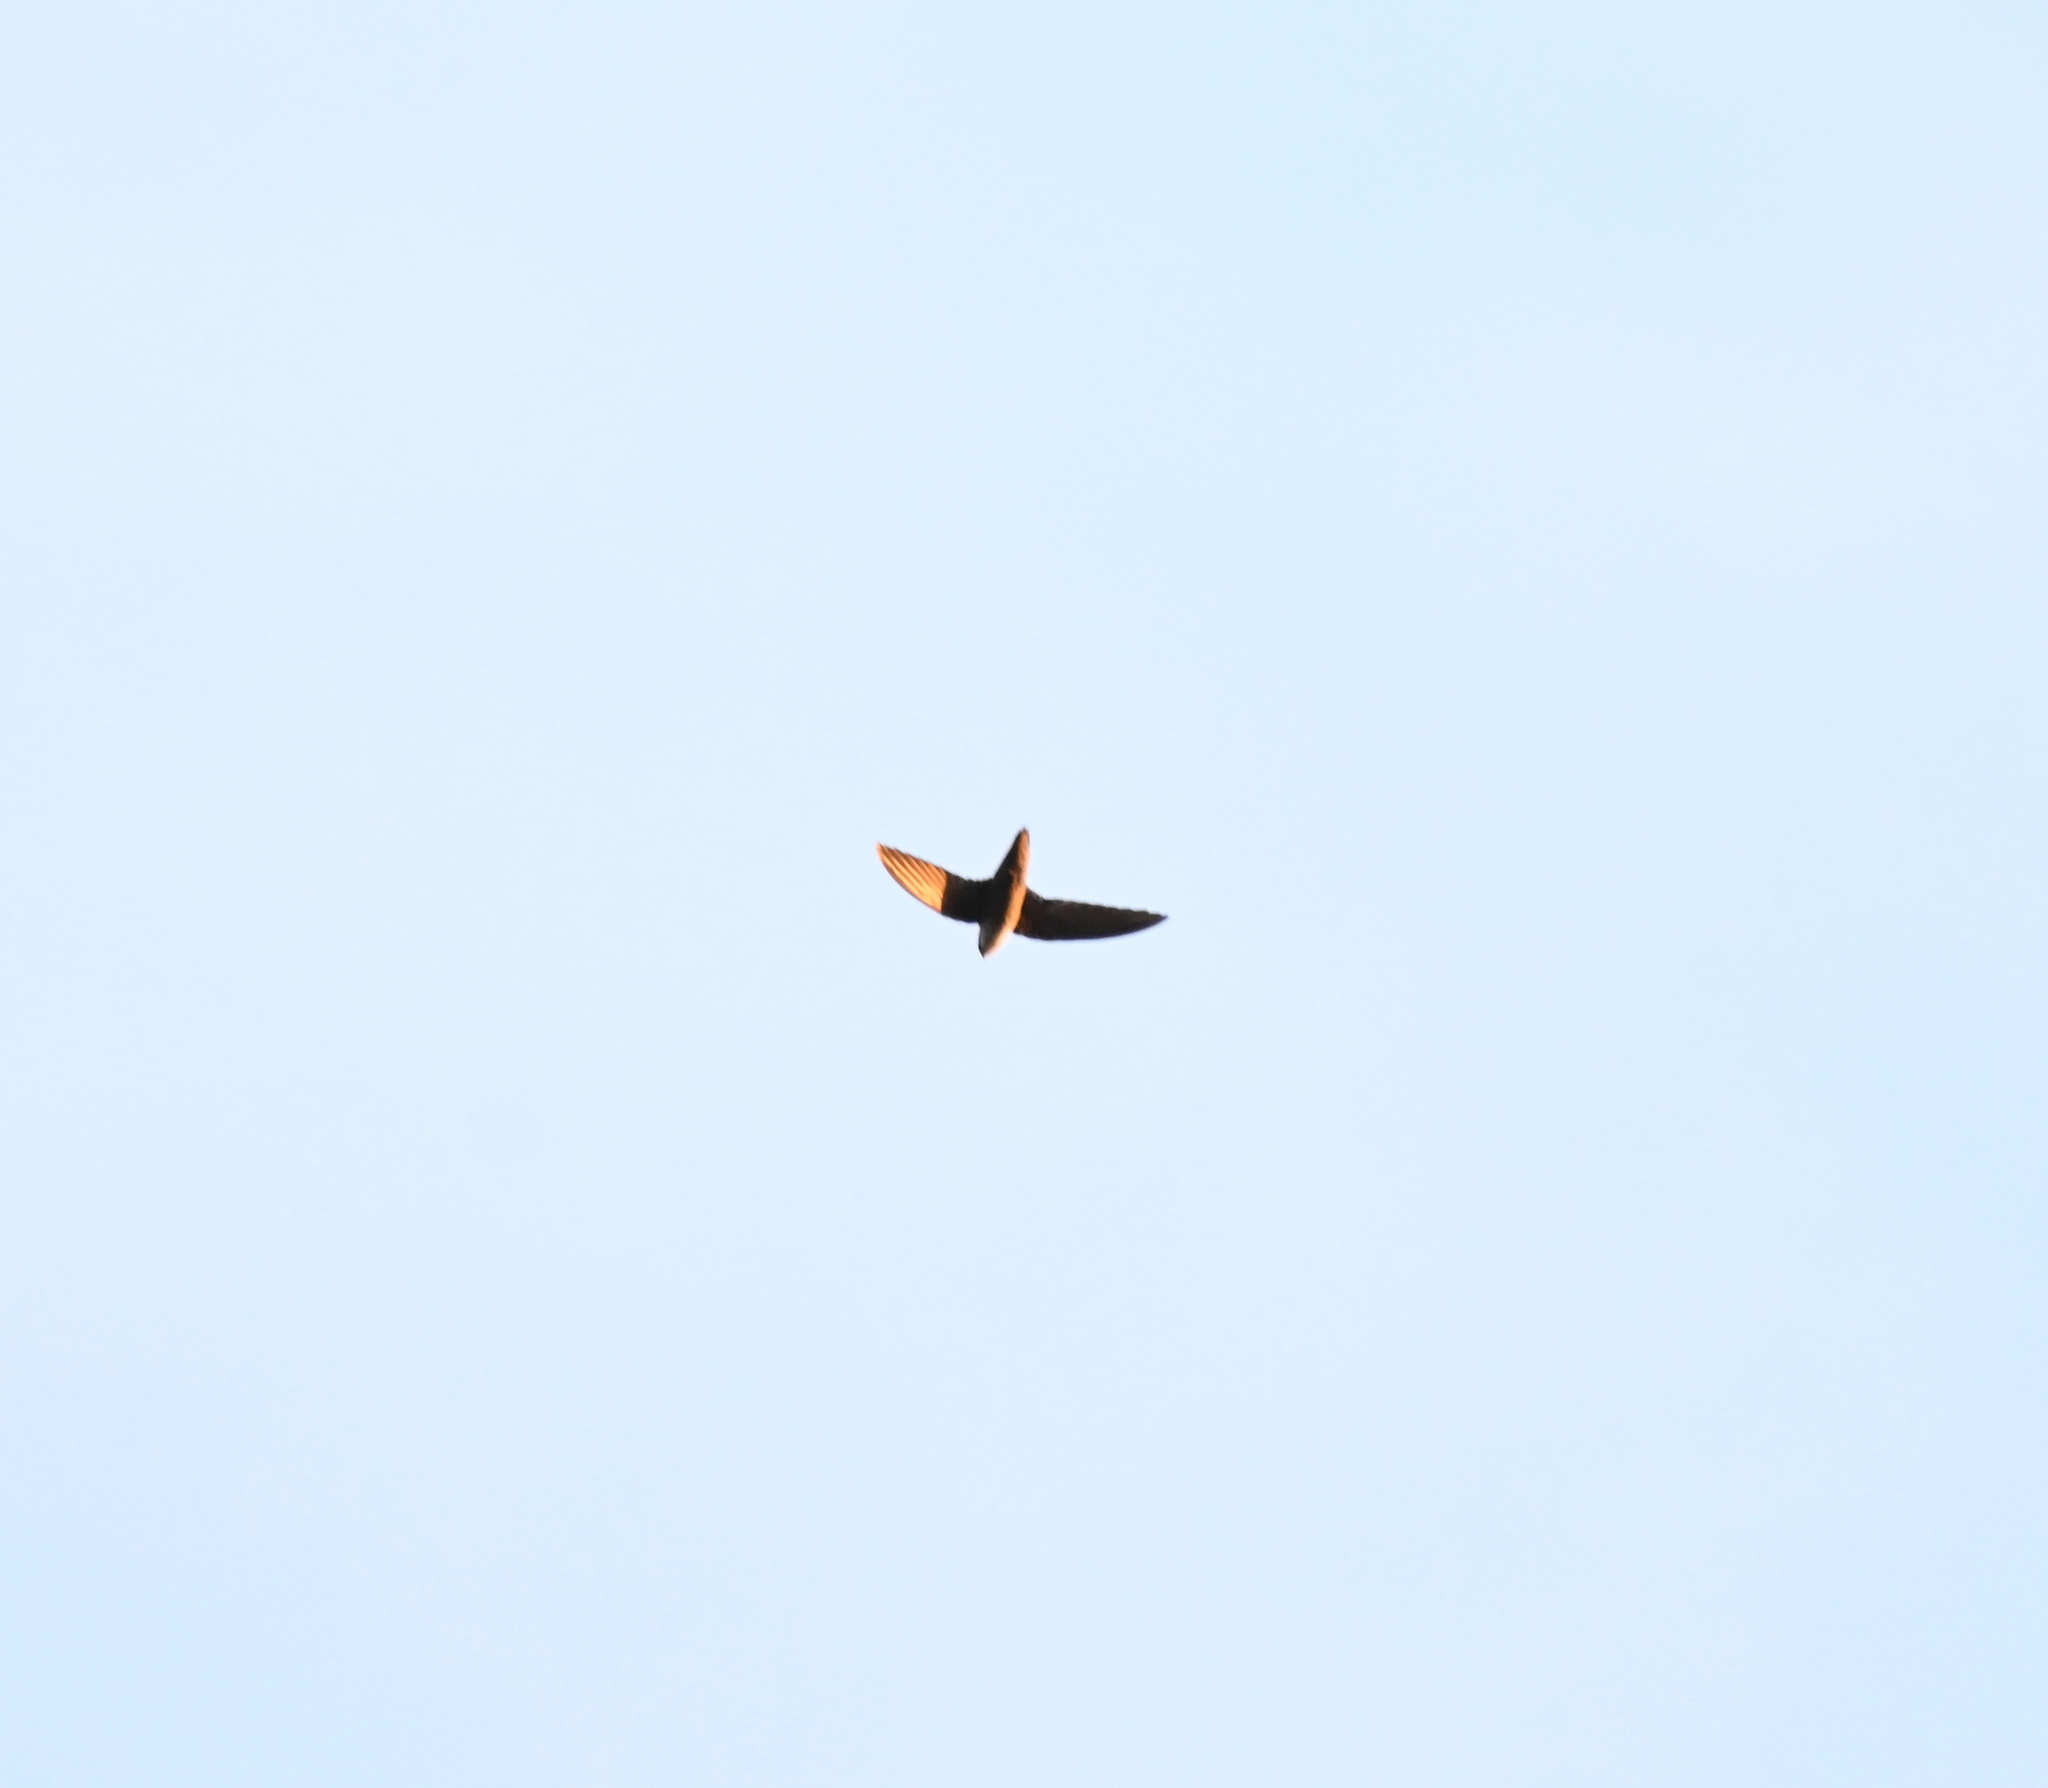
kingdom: Animalia
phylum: Chordata
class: Aves
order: Apodiformes
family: Apodidae
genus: Chaetura
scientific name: Chaetura pelagica
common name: Chimney swift
